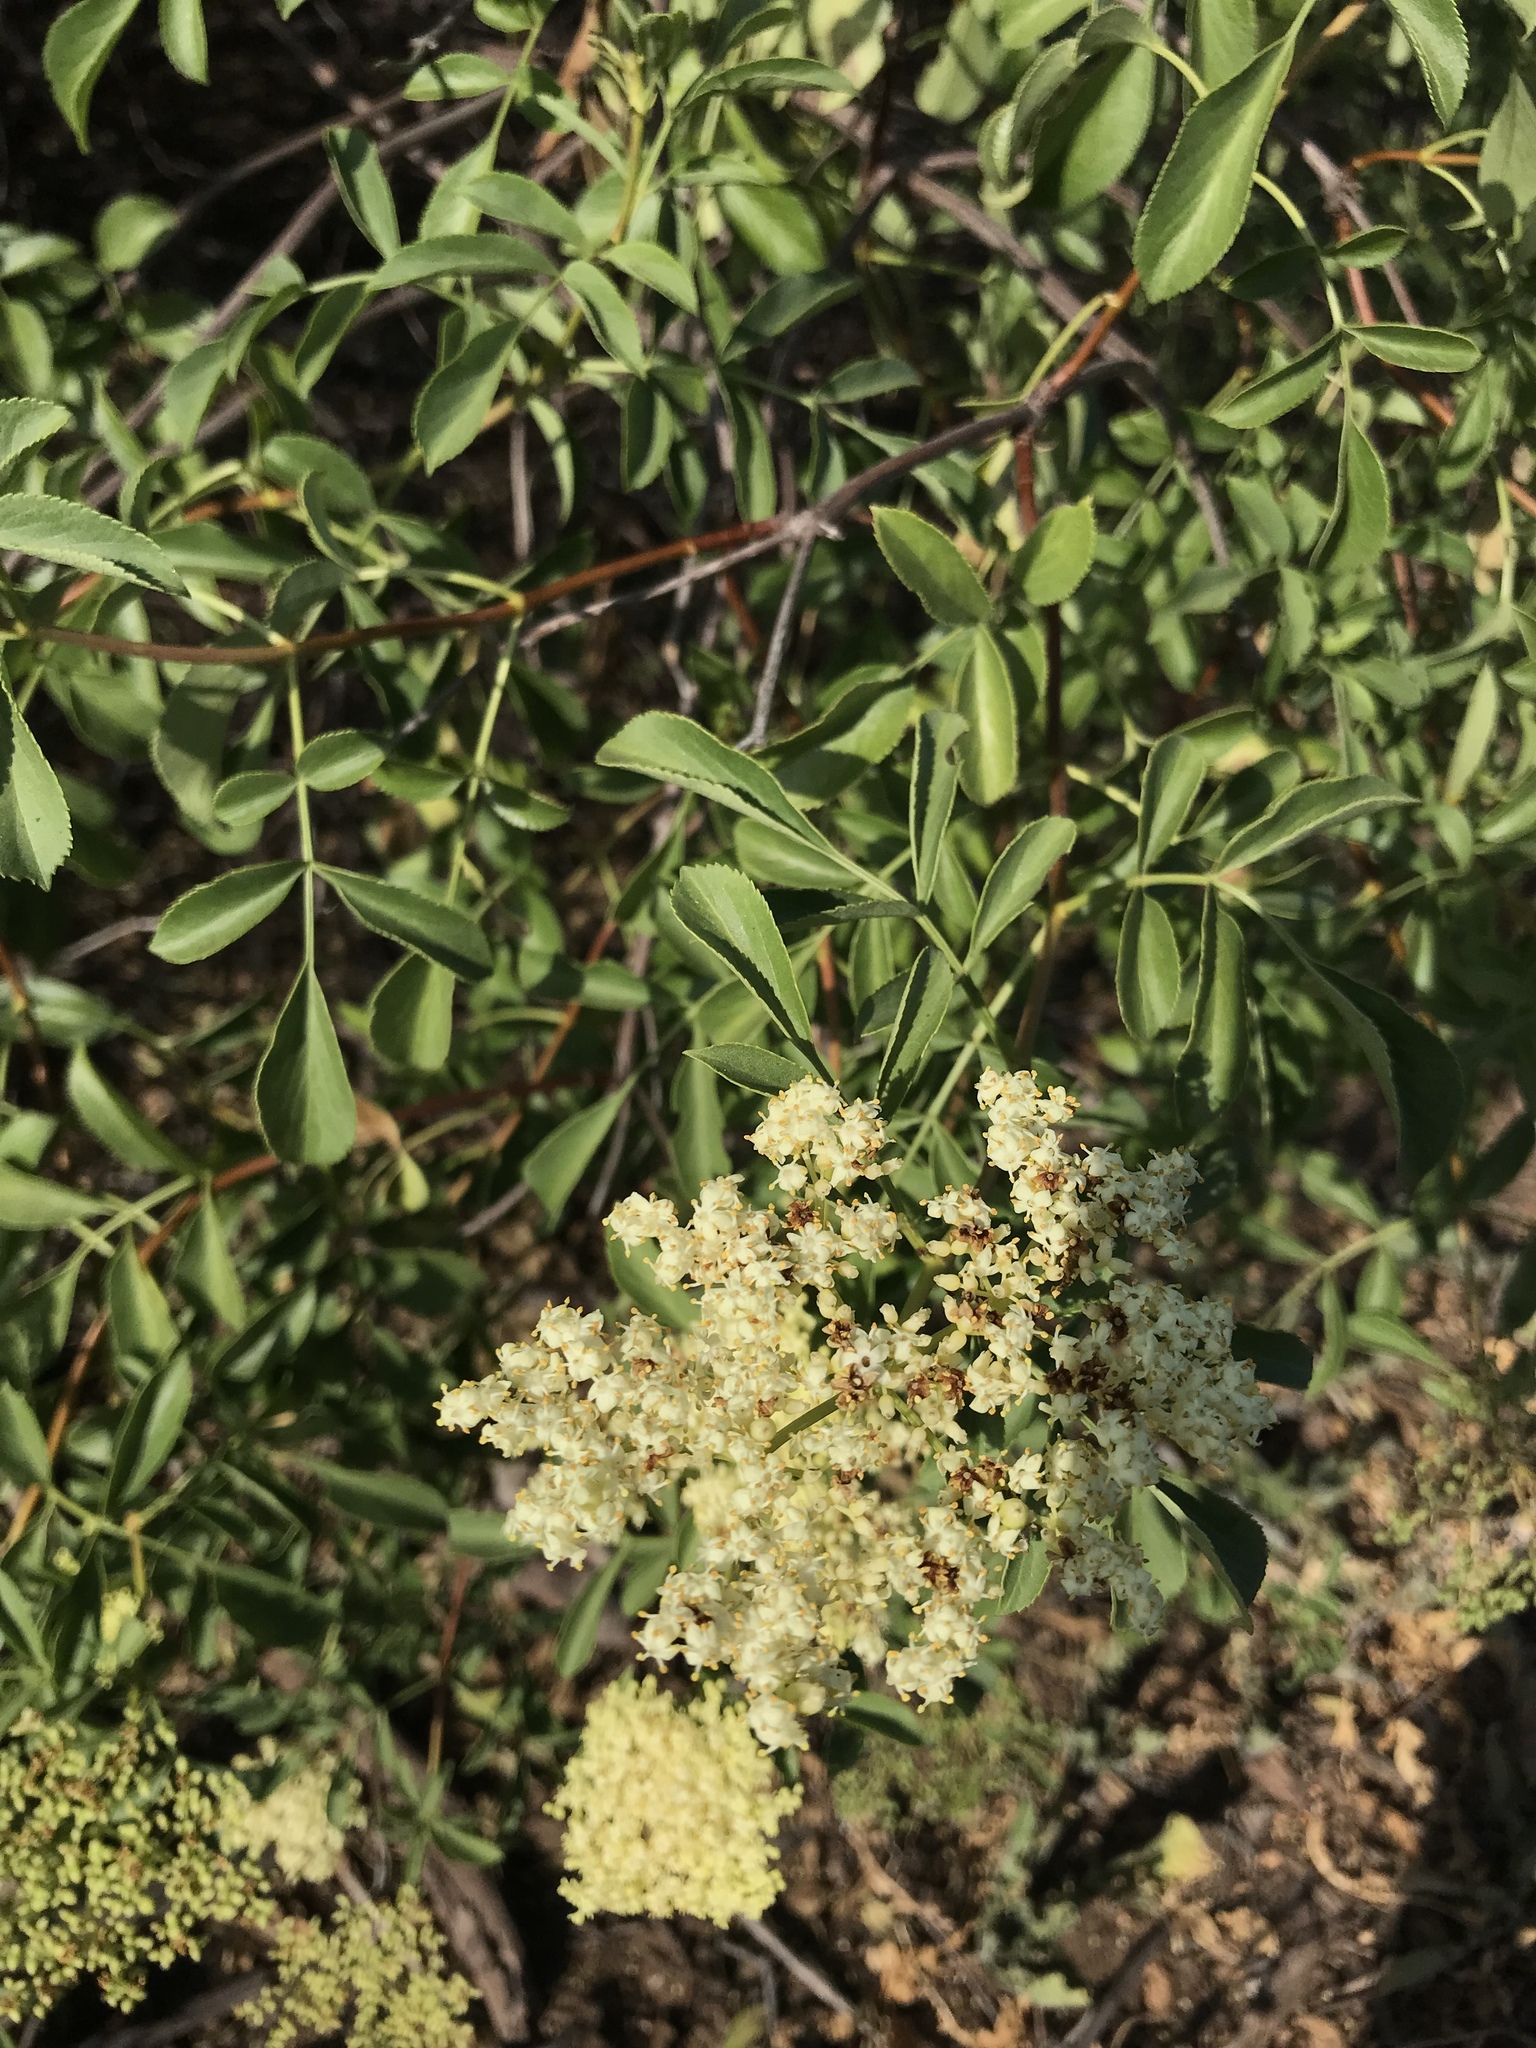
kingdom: Plantae
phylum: Tracheophyta
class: Magnoliopsida
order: Dipsacales
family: Viburnaceae
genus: Sambucus
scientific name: Sambucus cerulea
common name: Blue elder
